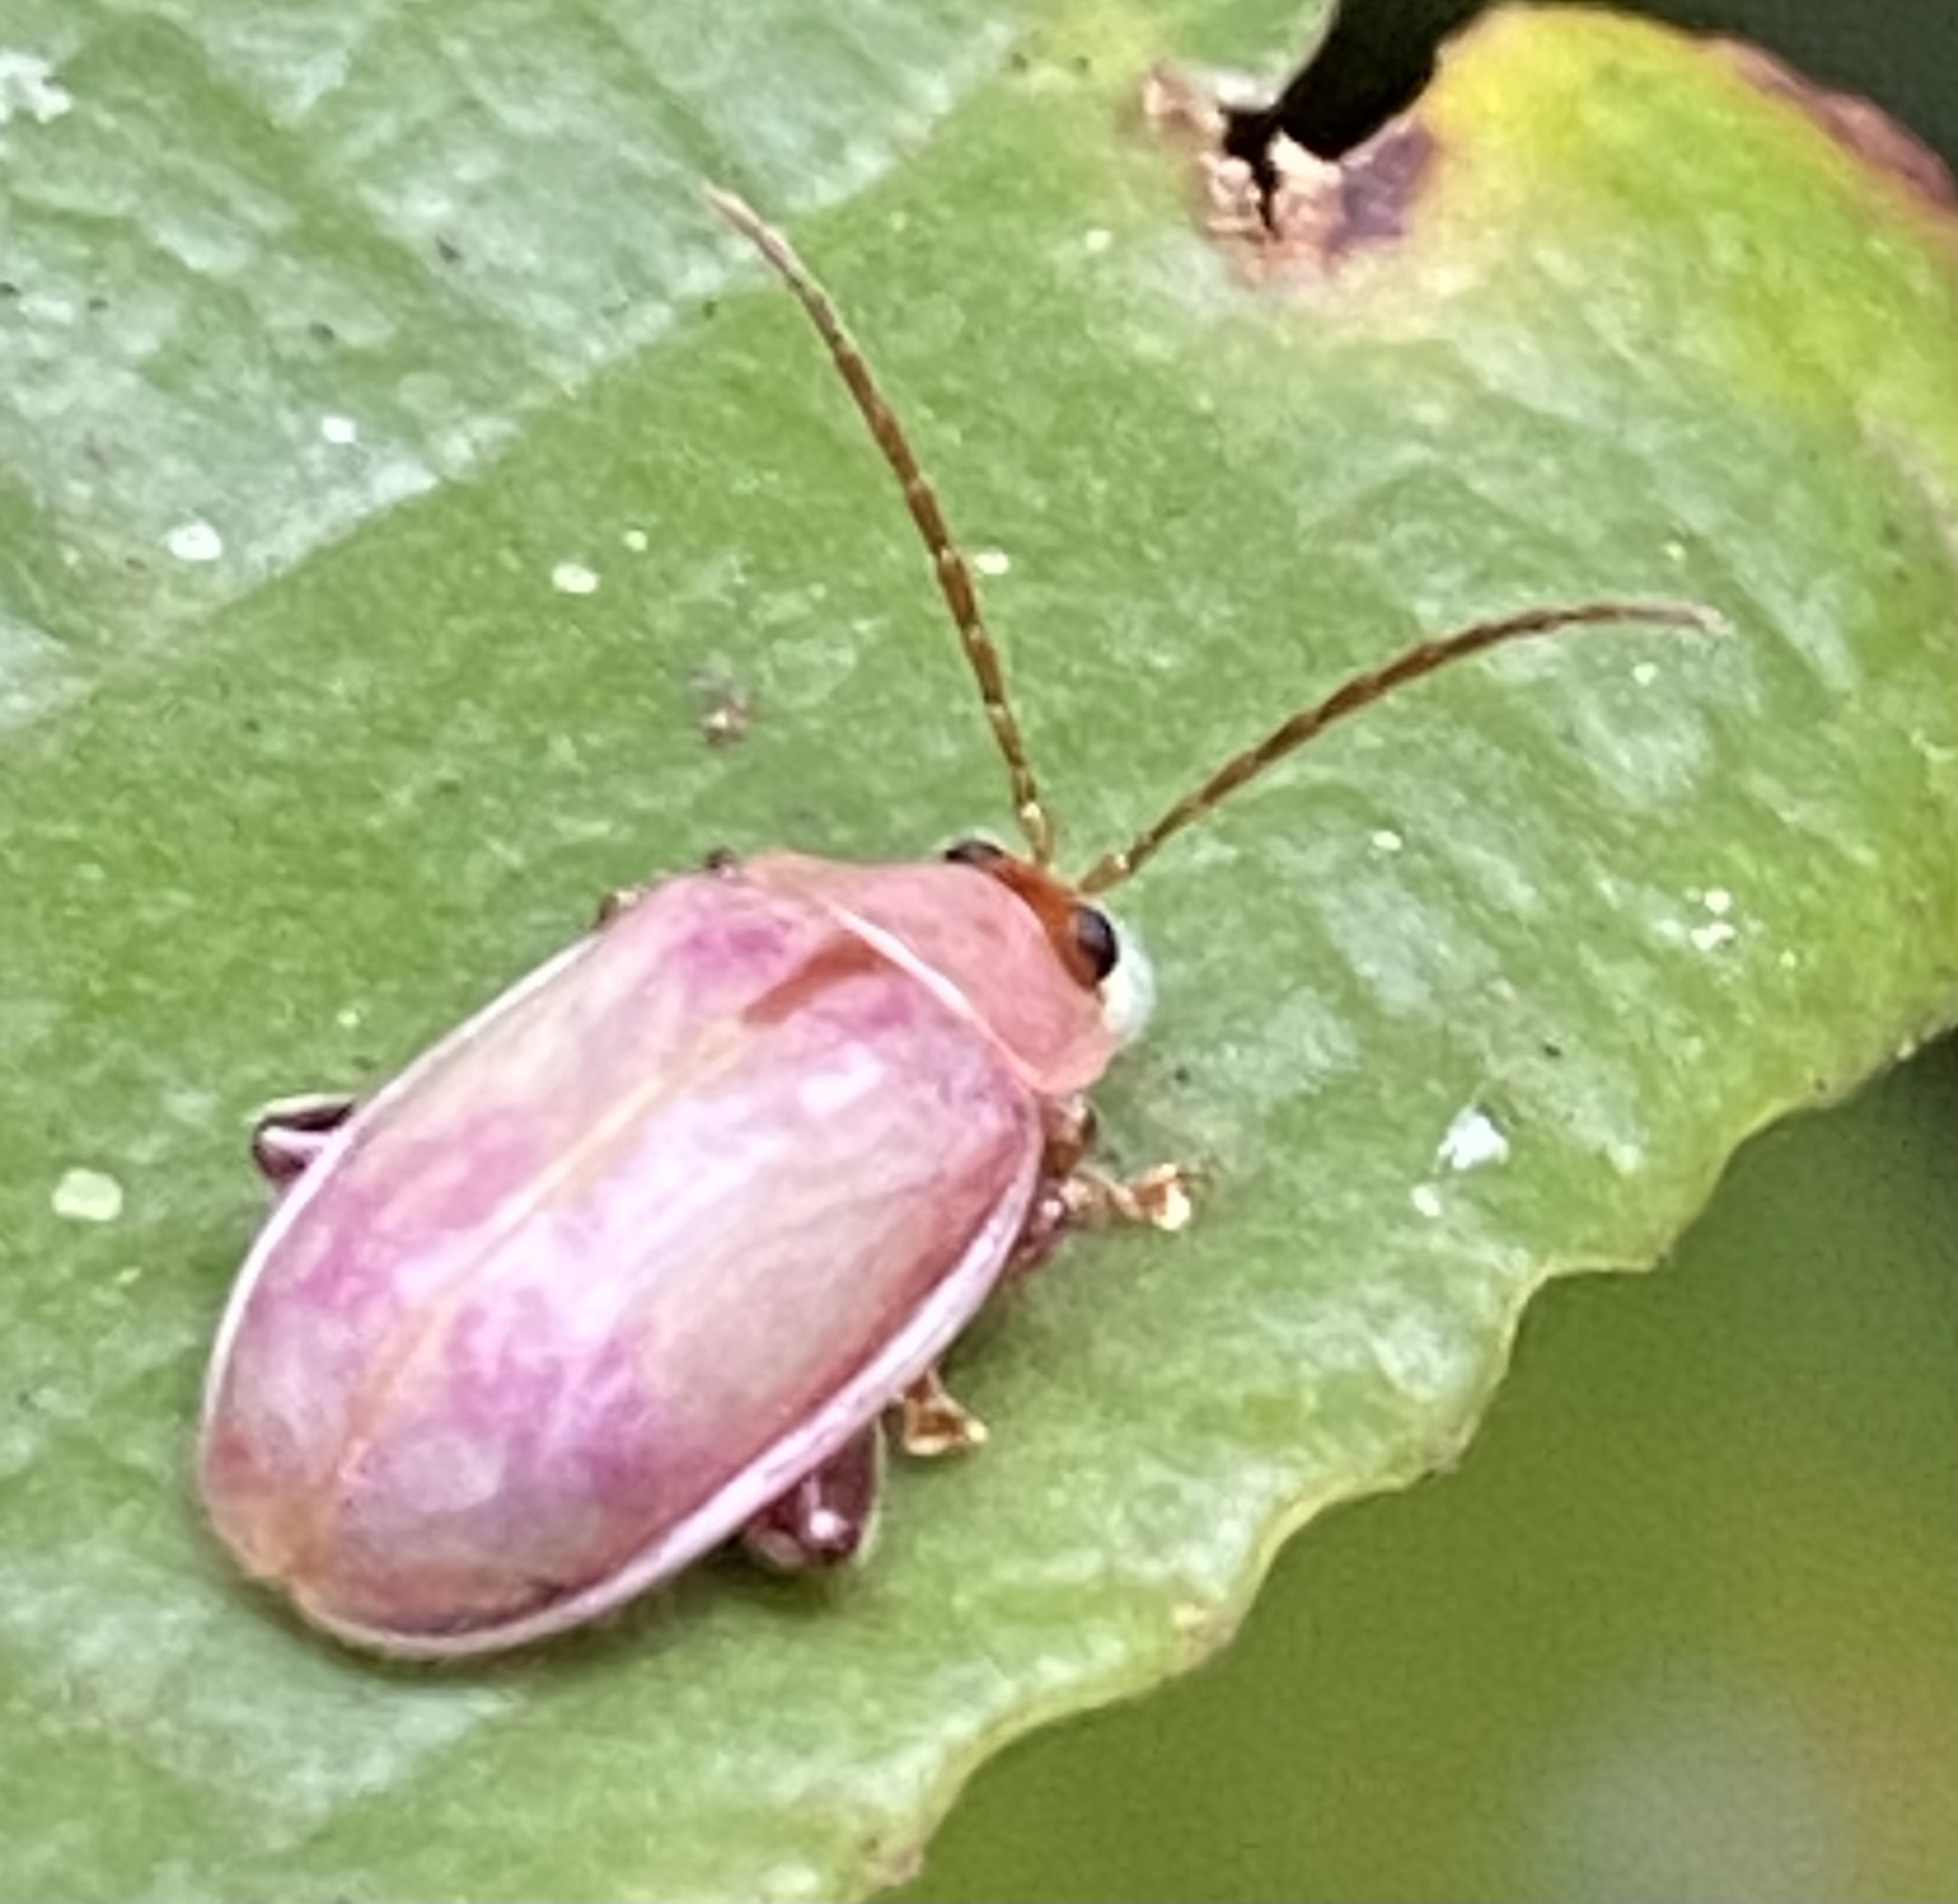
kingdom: Animalia
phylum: Arthropoda
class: Insecta
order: Coleoptera
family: Chrysomelidae
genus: Asphaera
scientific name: Asphaera
